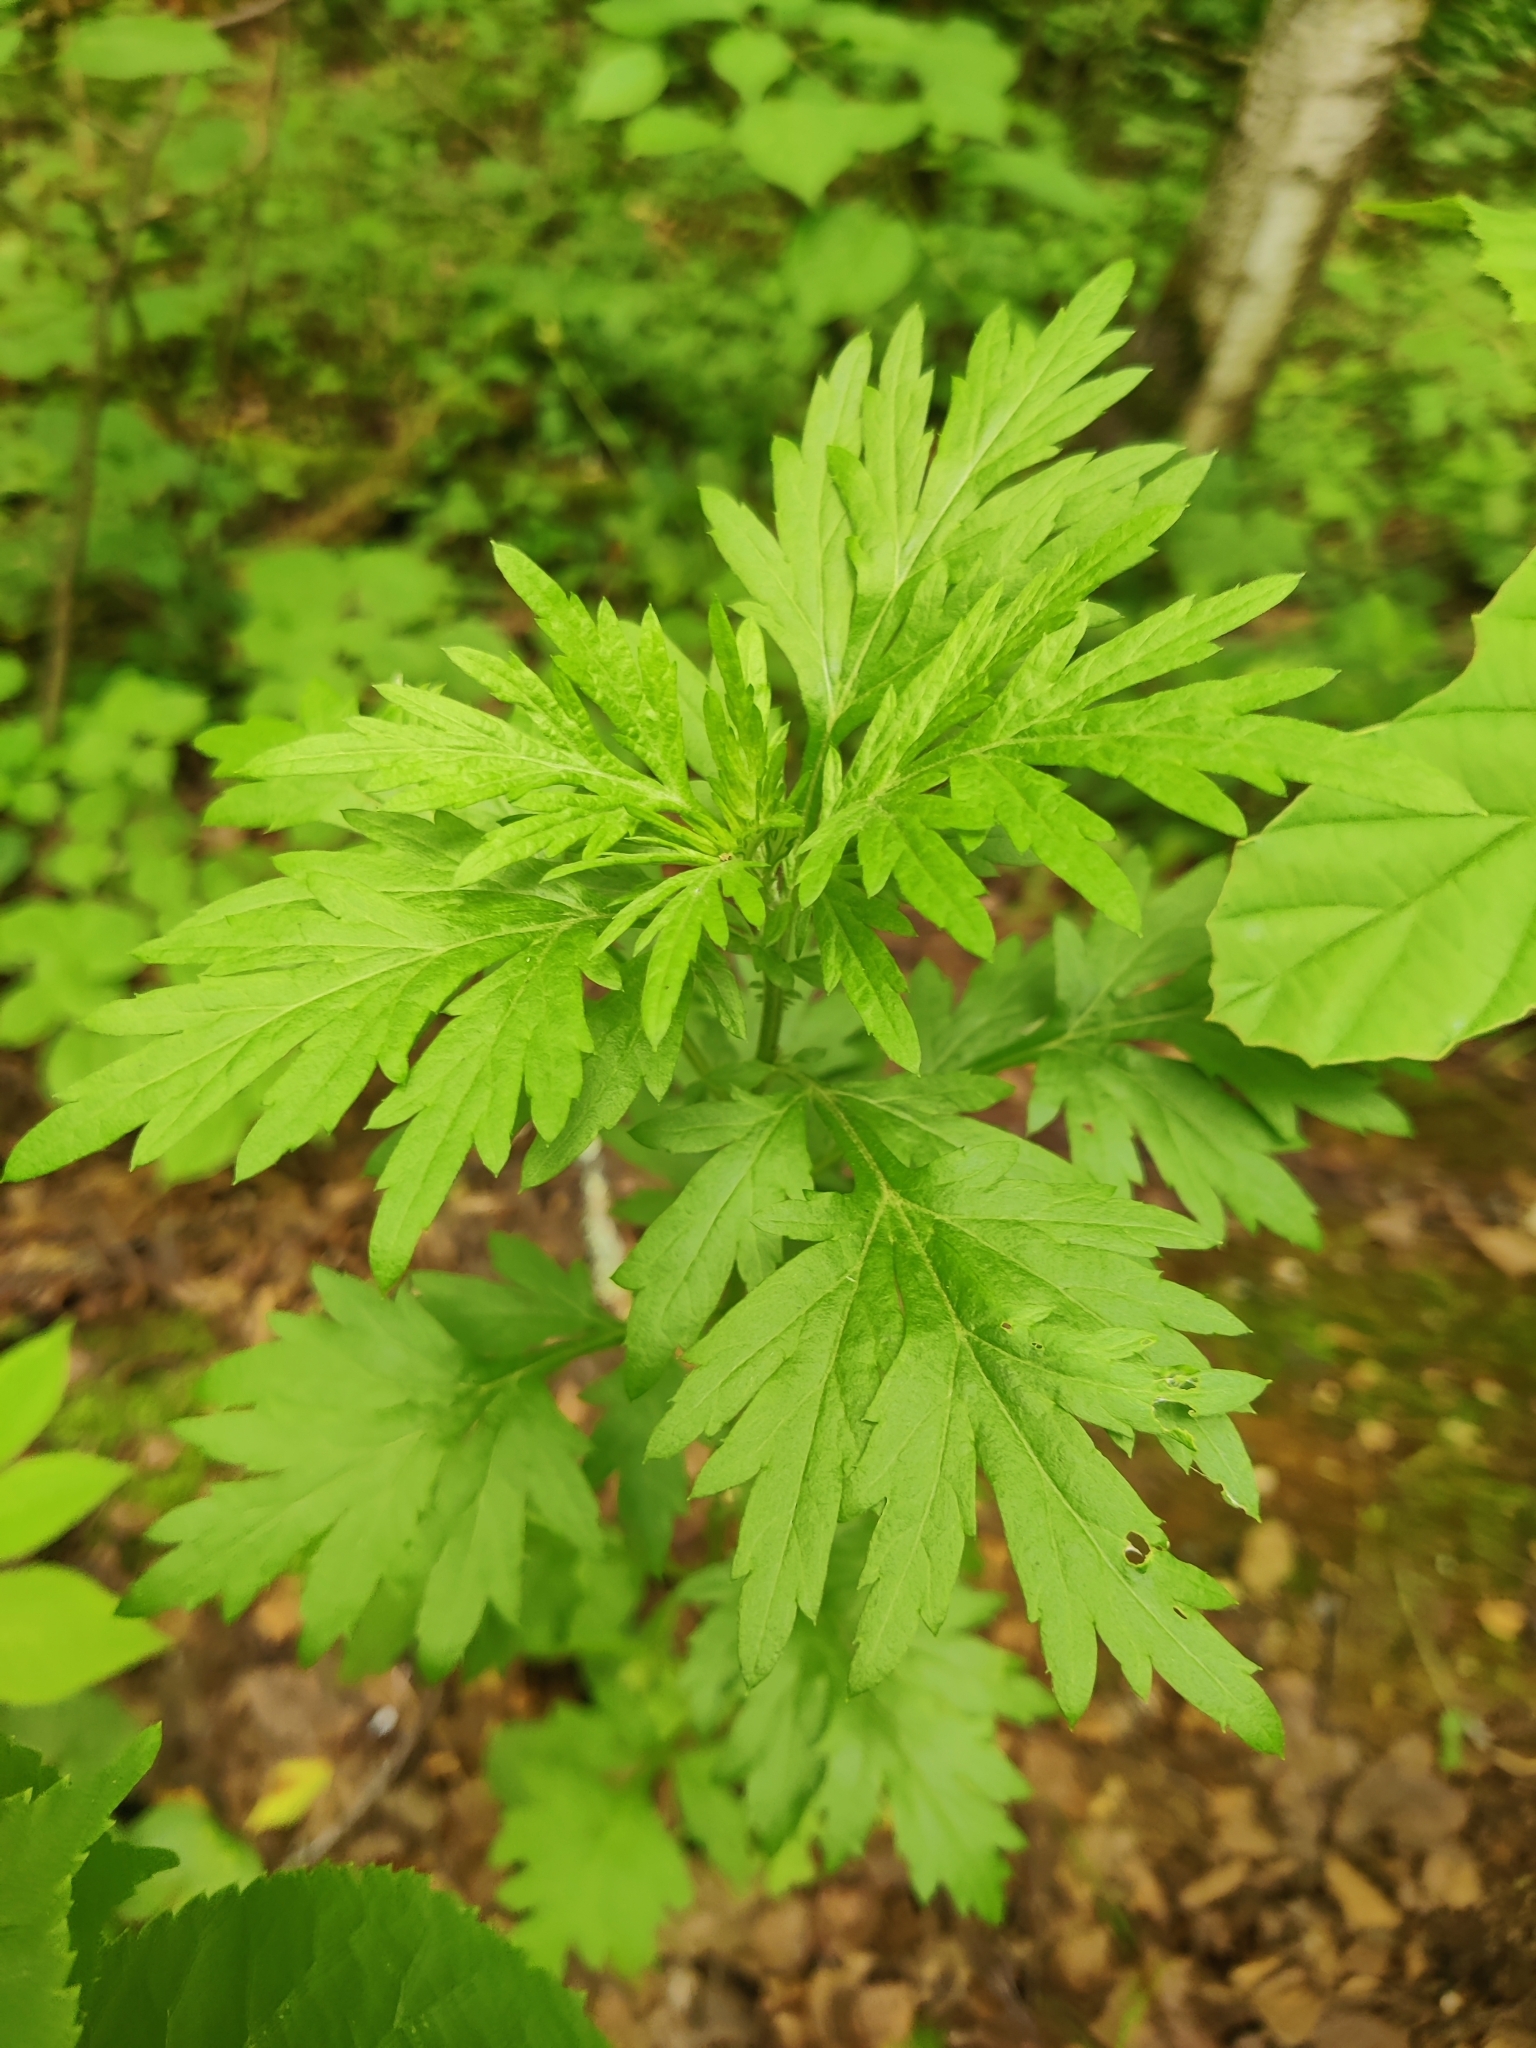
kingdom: Plantae
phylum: Tracheophyta
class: Magnoliopsida
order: Asterales
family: Asteraceae
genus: Artemisia
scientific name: Artemisia vulgaris
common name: Mugwort
